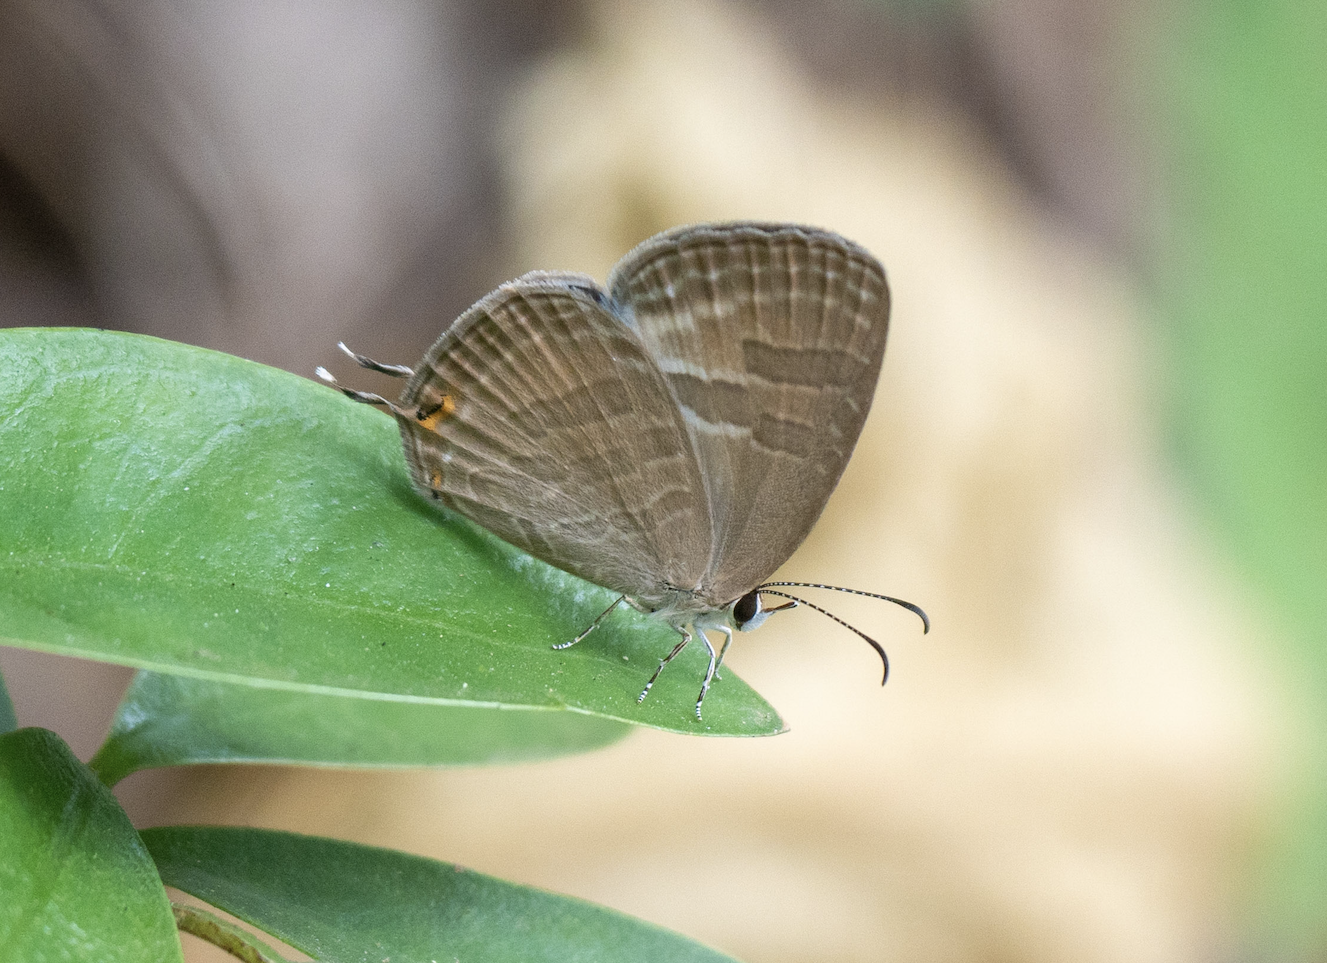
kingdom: Animalia
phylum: Arthropoda
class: Insecta
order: Lepidoptera
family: Lycaenidae
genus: Jamides
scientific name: Jamides celeno
